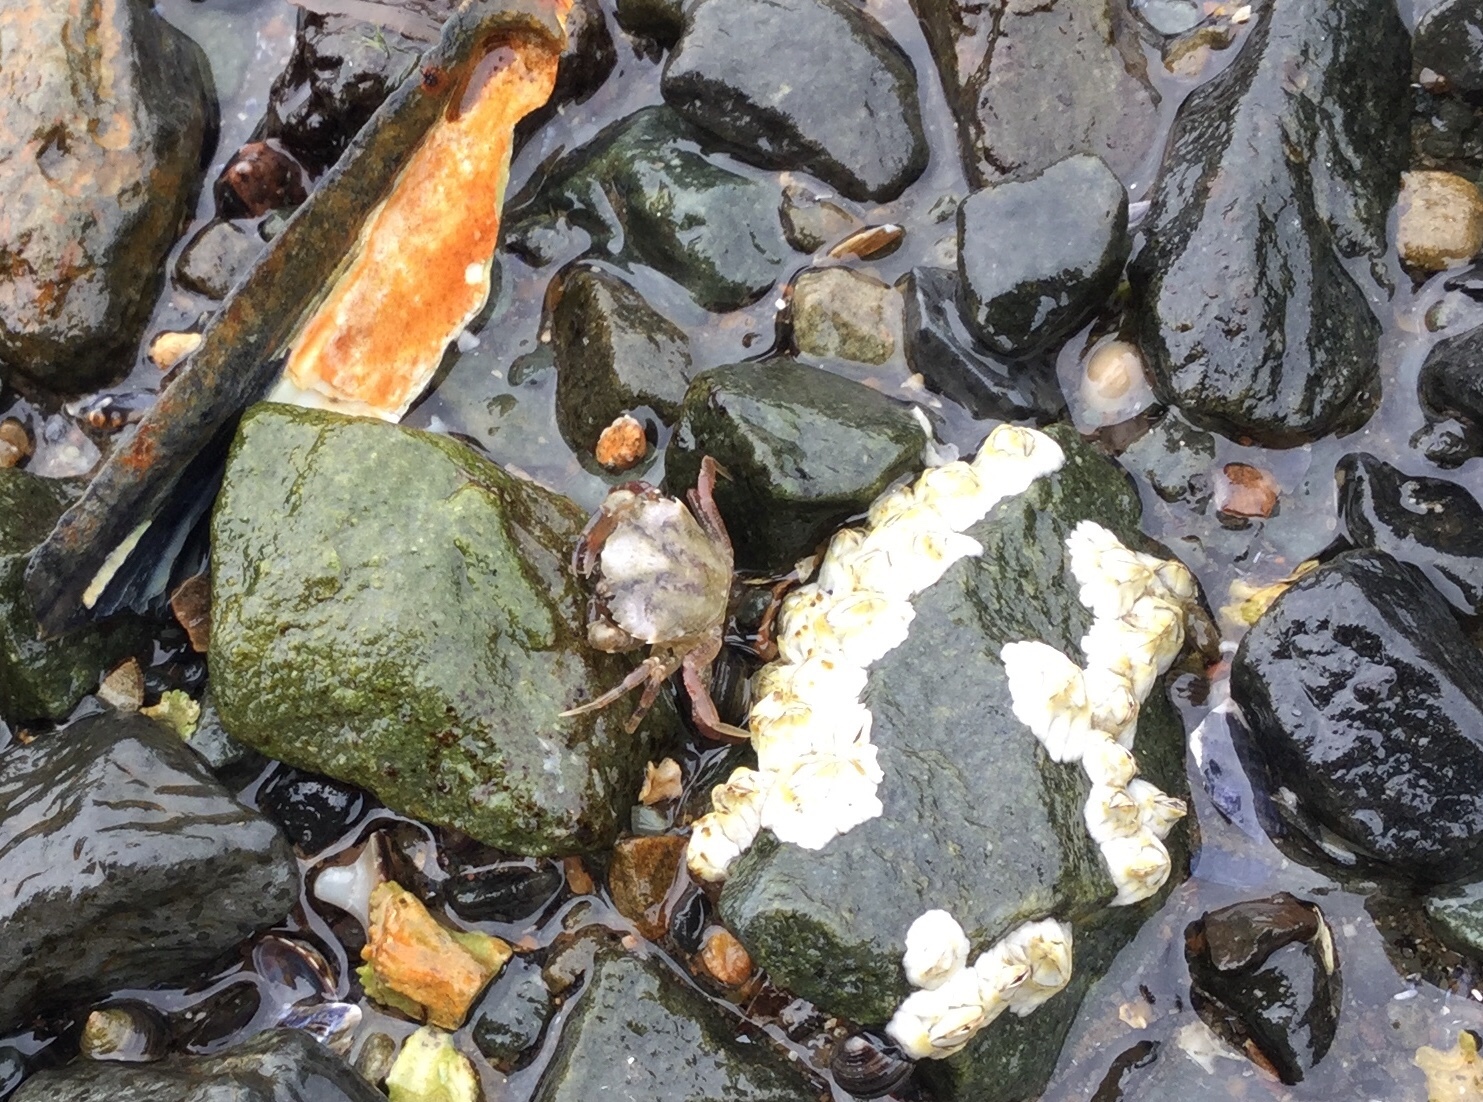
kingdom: Animalia
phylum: Arthropoda
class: Malacostraca
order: Decapoda
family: Carcinidae
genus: Carcinus
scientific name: Carcinus maenas
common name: European green crab
